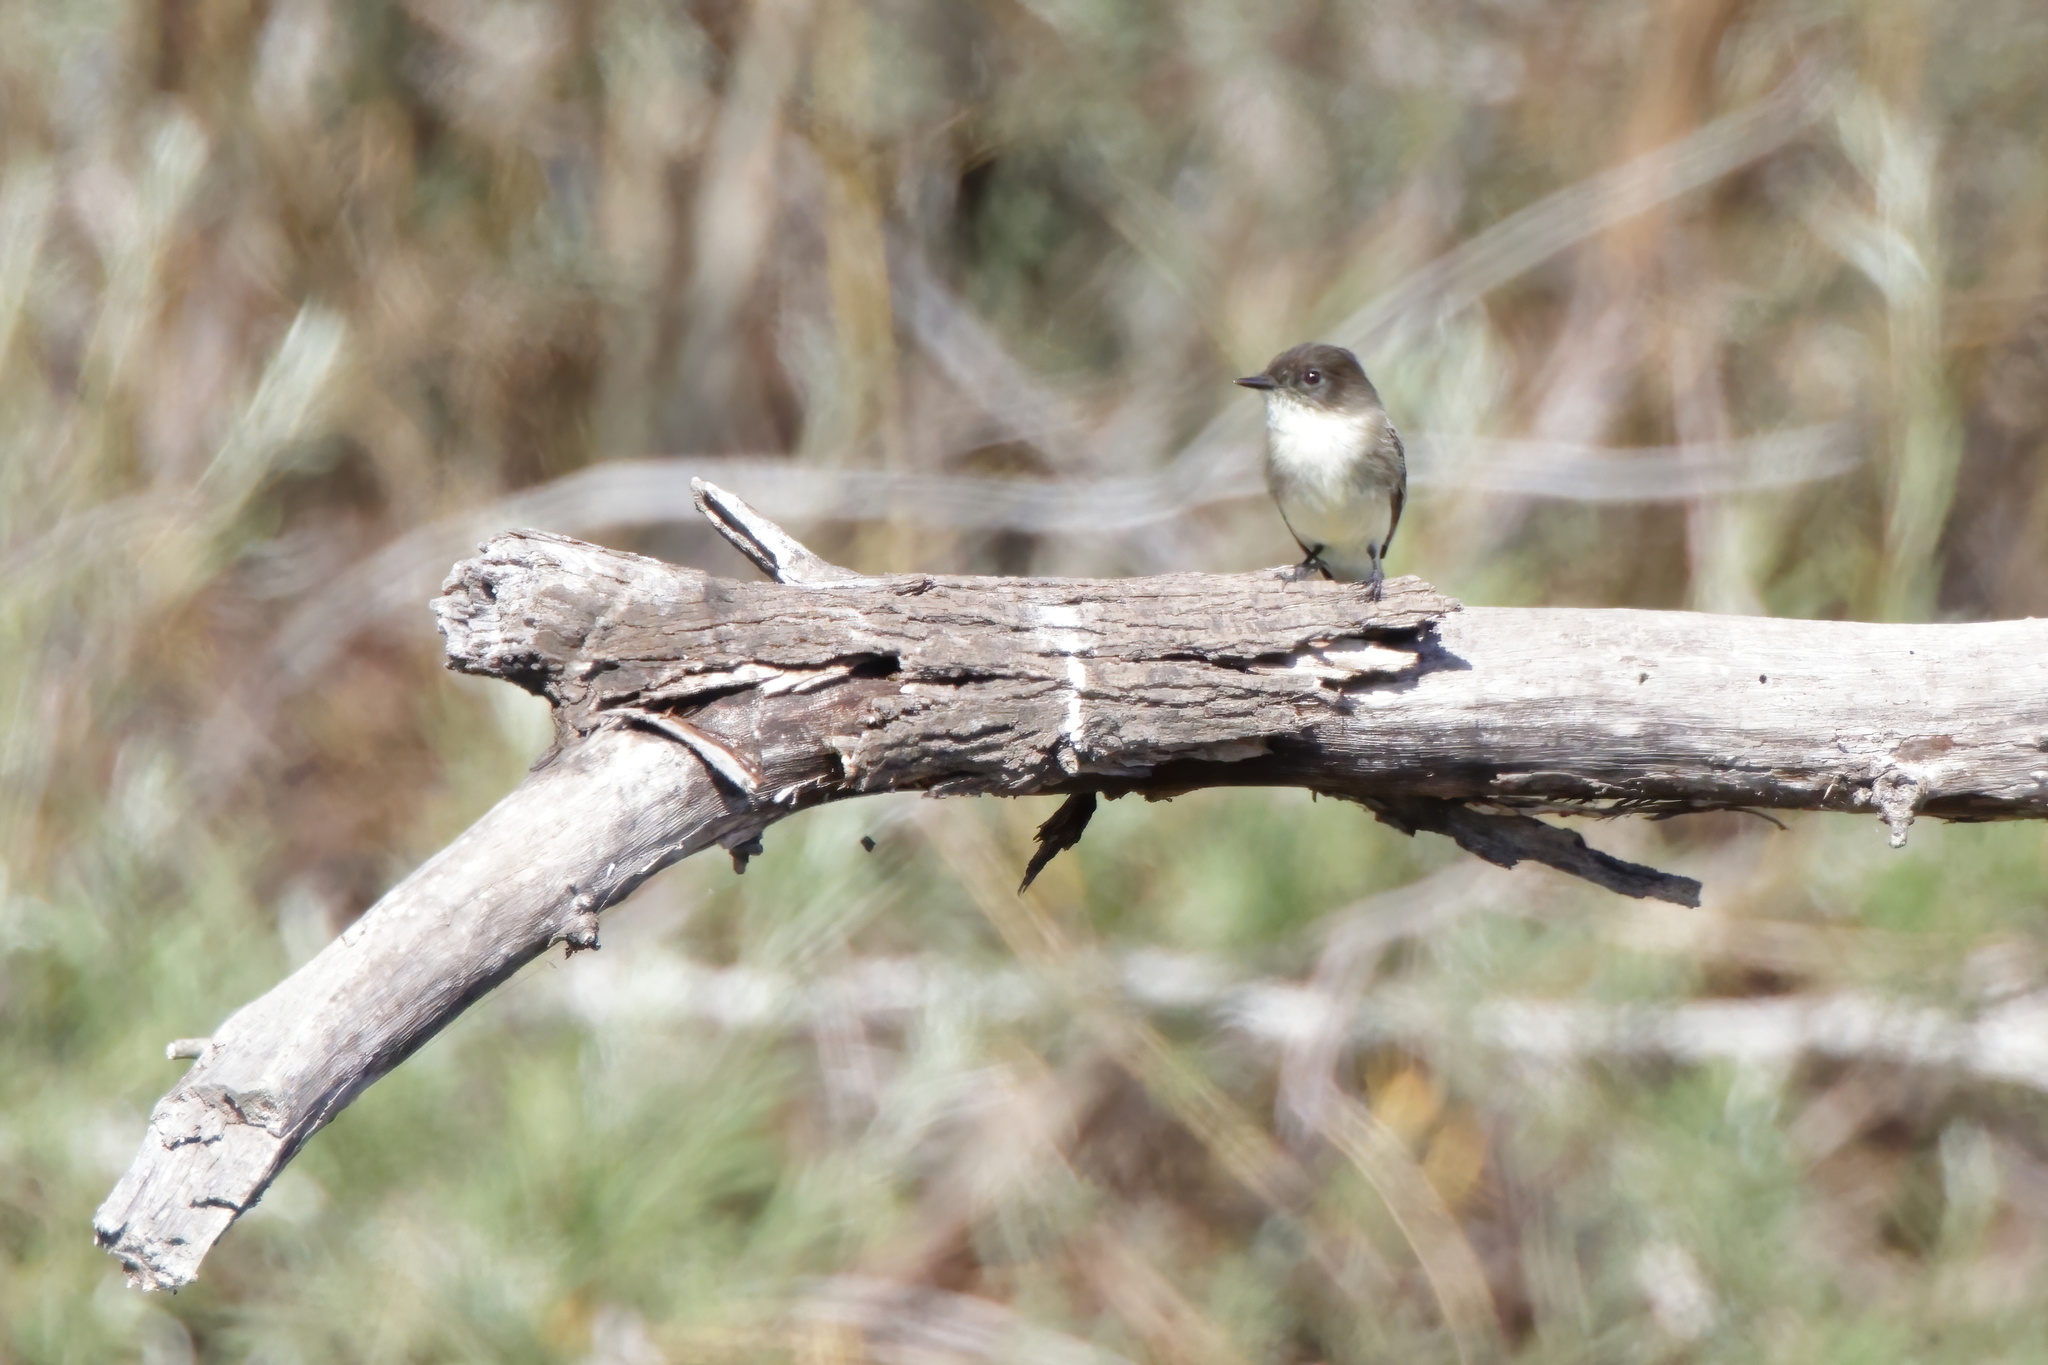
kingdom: Animalia
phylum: Chordata
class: Aves
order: Passeriformes
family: Tyrannidae
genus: Sayornis
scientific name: Sayornis phoebe
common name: Eastern phoebe
